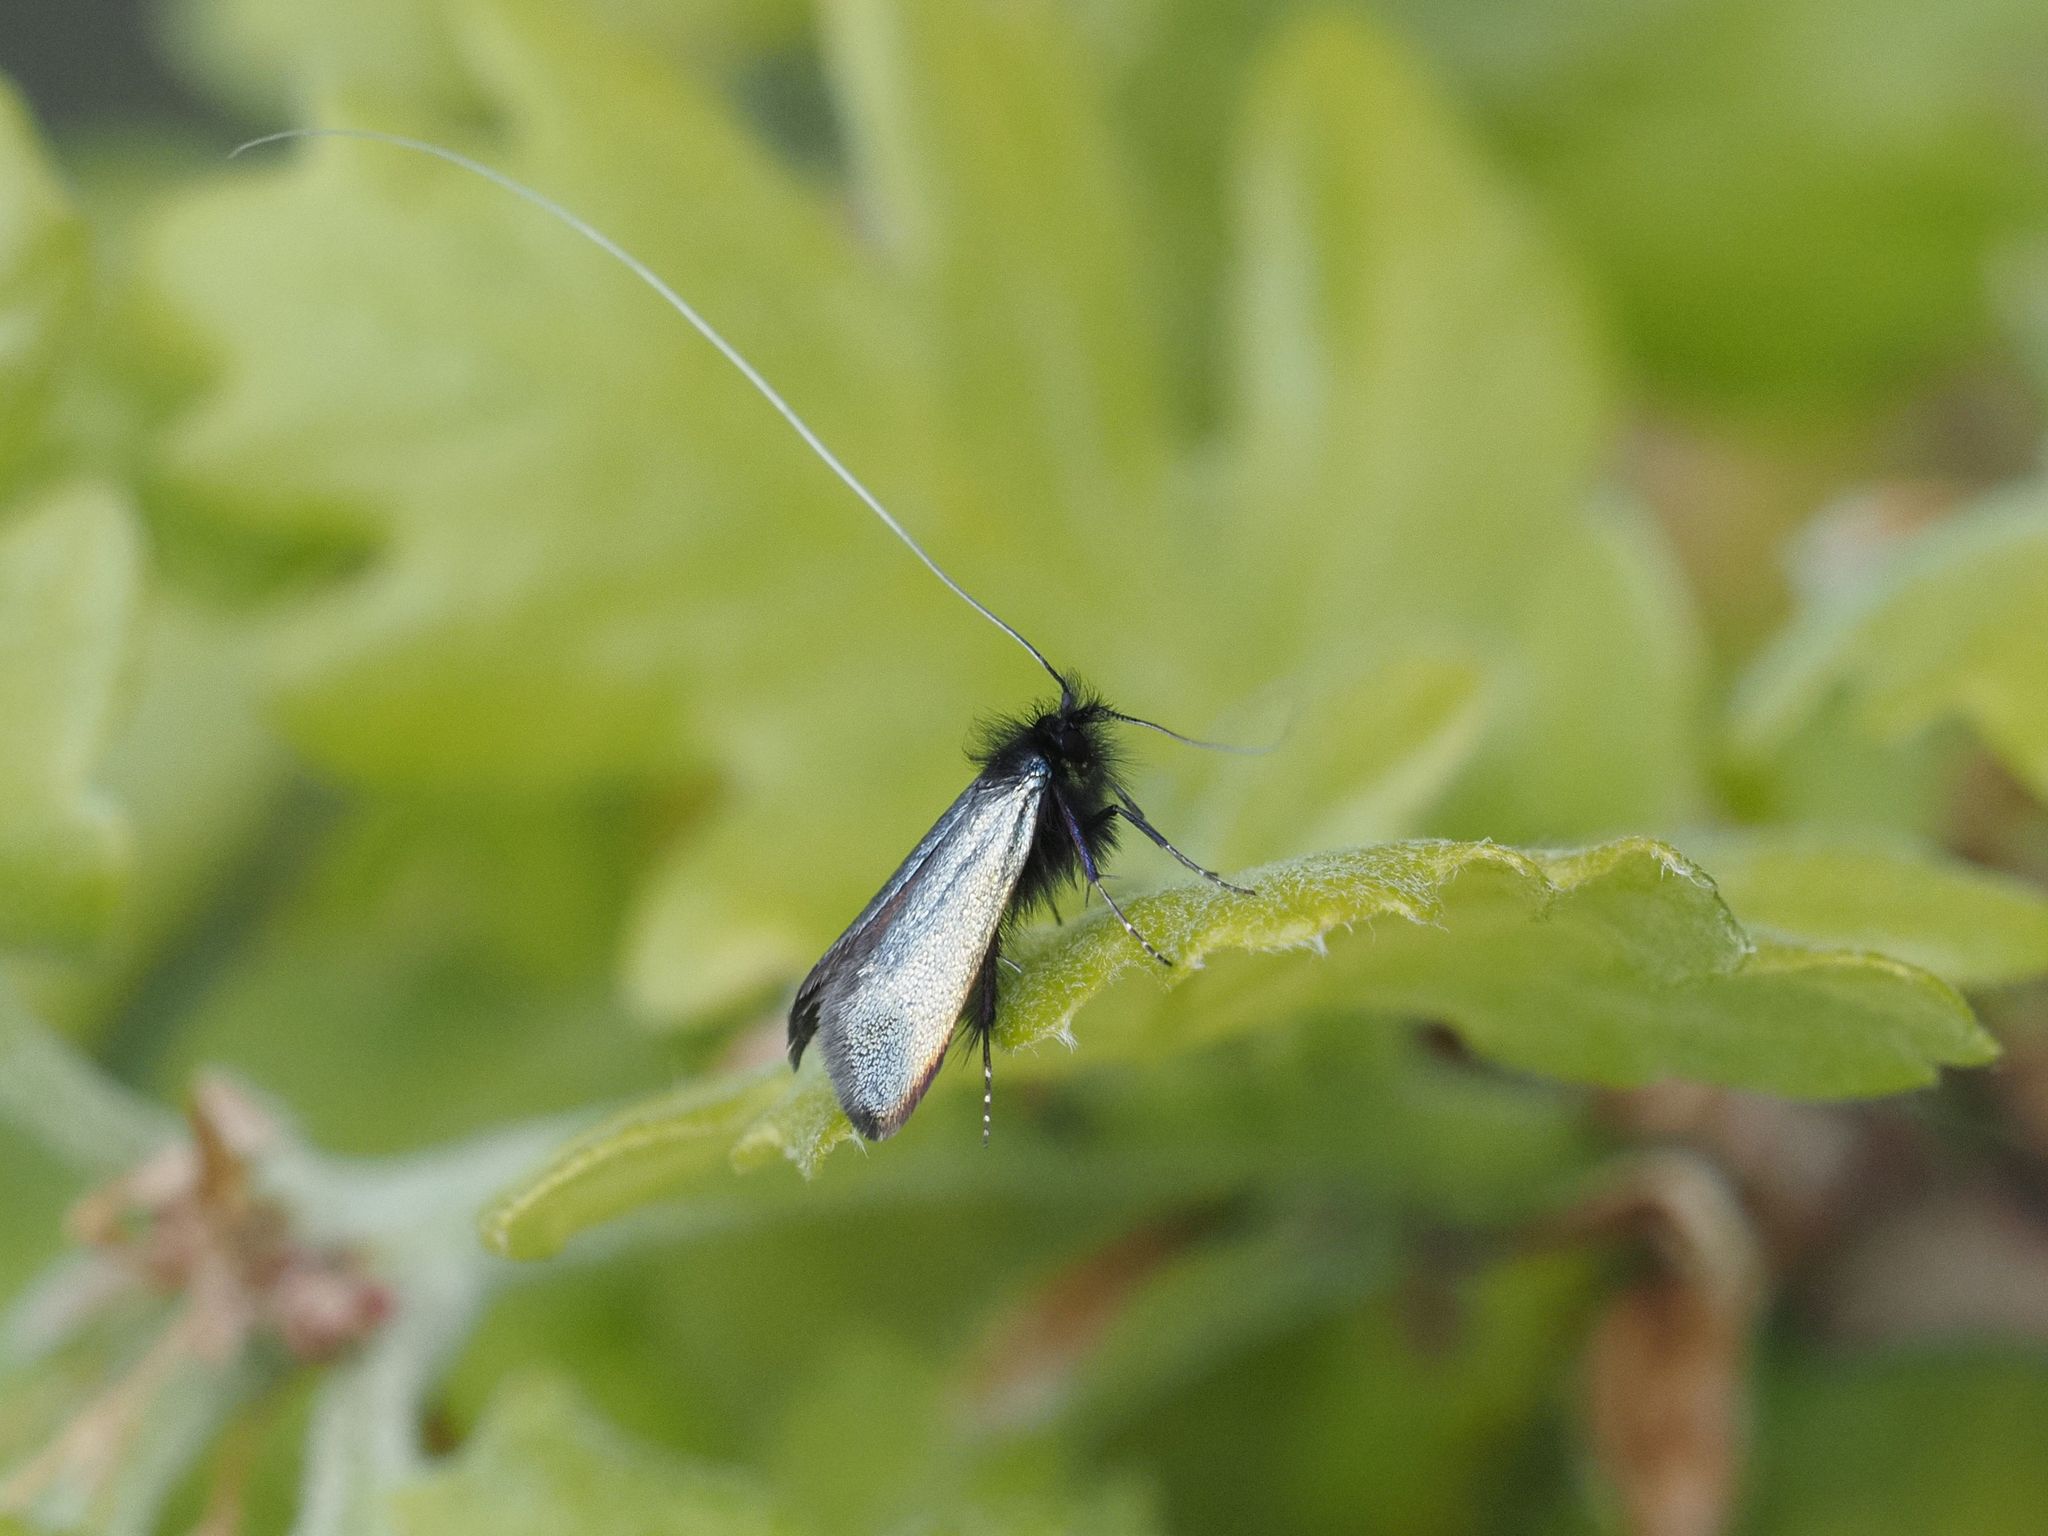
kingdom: Animalia
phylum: Arthropoda
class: Insecta
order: Lepidoptera
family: Adelidae
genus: Adela
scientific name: Adela viridella
